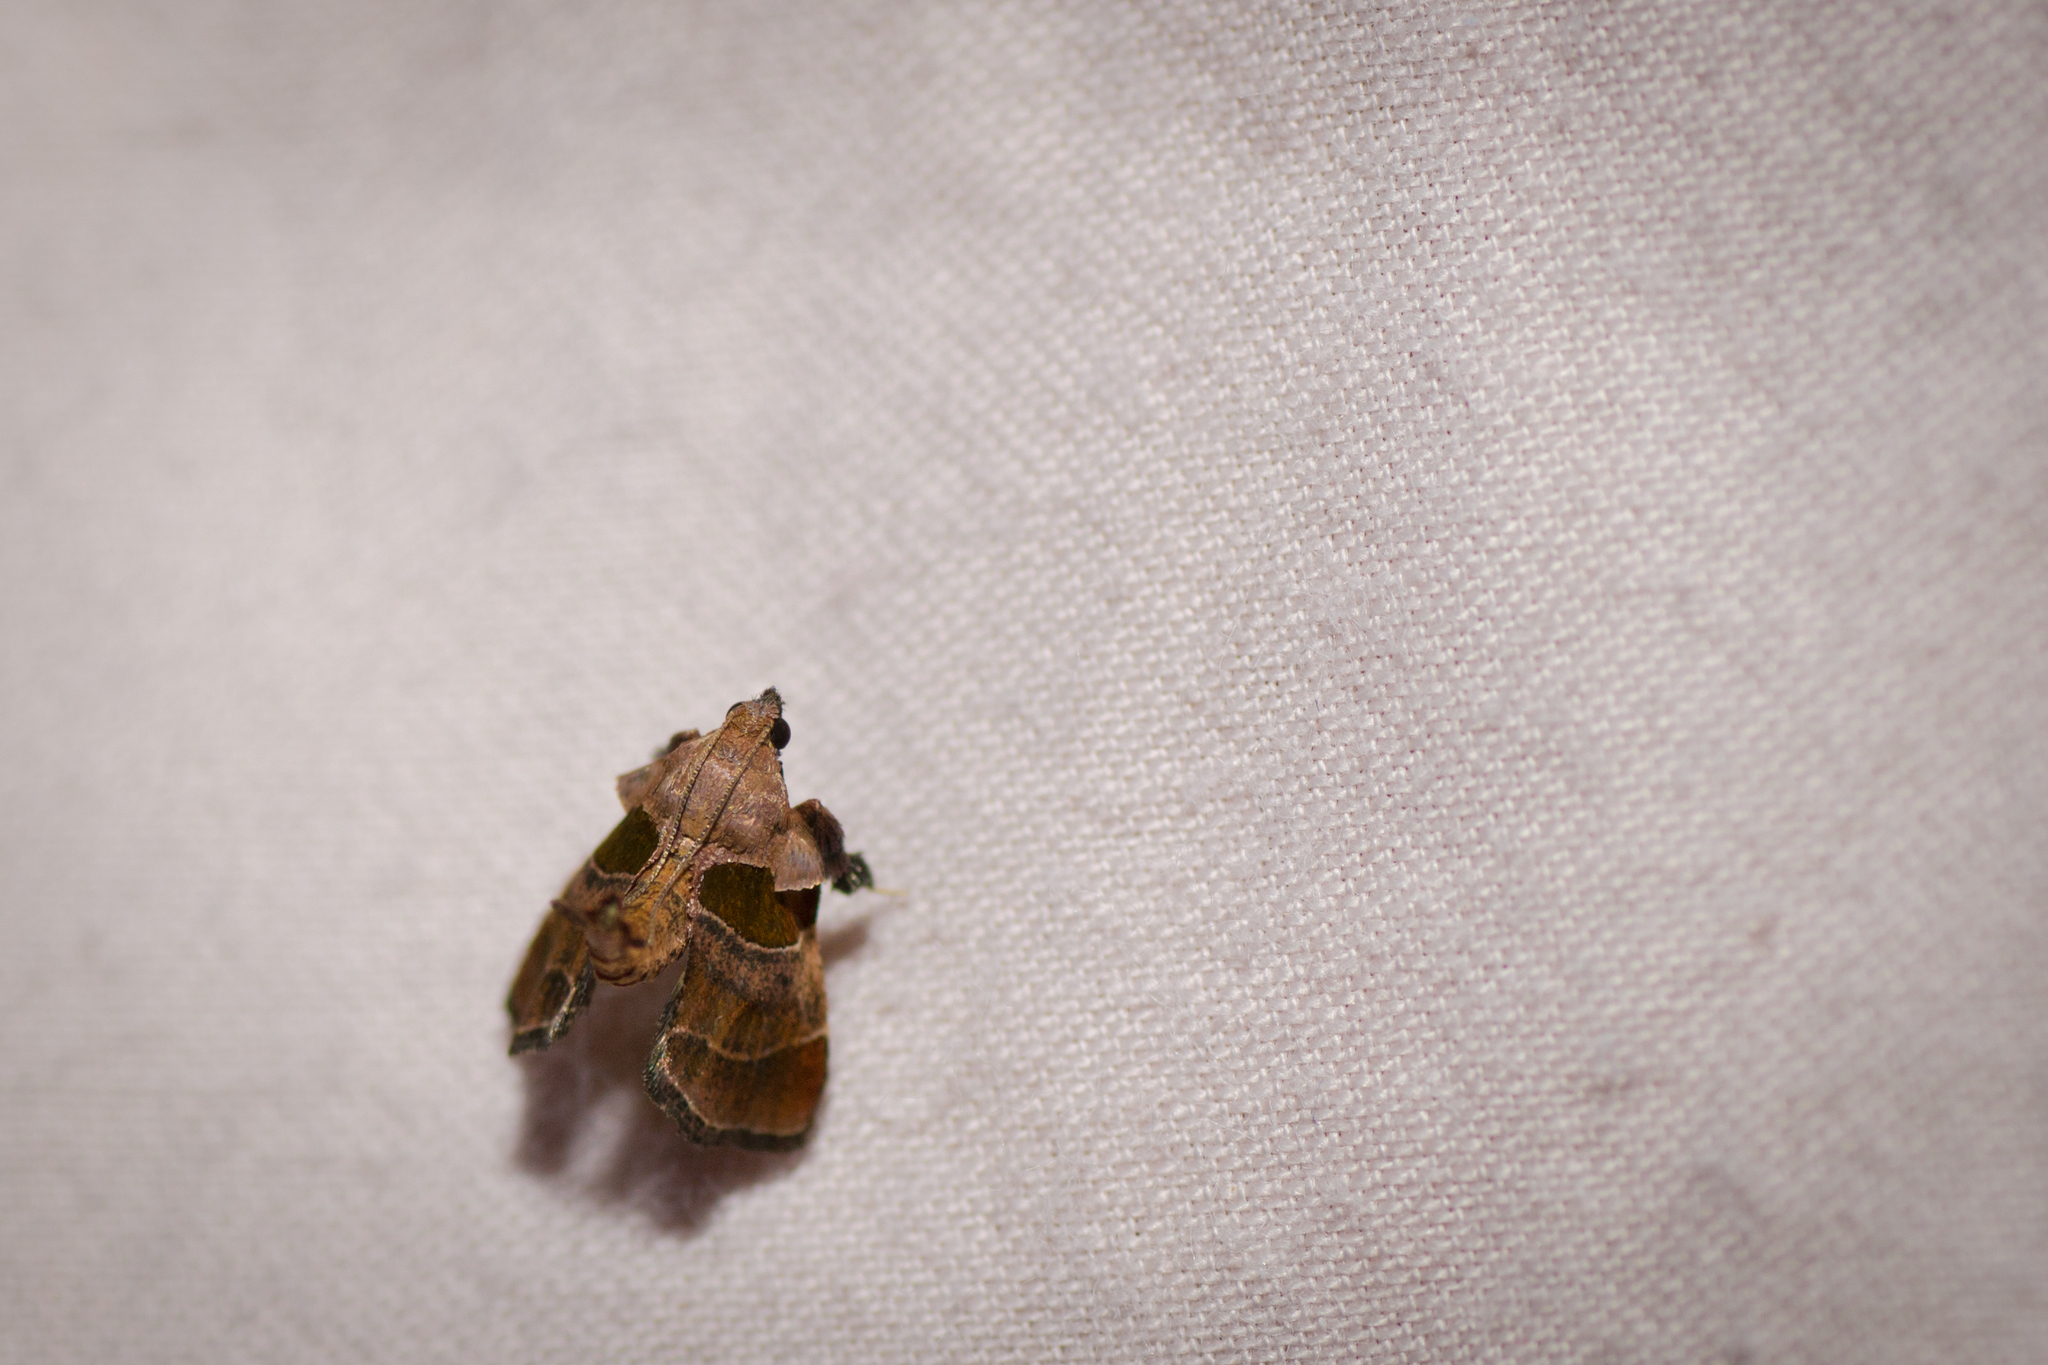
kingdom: Animalia
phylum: Arthropoda
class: Insecta
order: Lepidoptera
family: Pyralidae
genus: Tosale
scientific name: Tosale oviplagalis
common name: Dimorphic tosale moth
